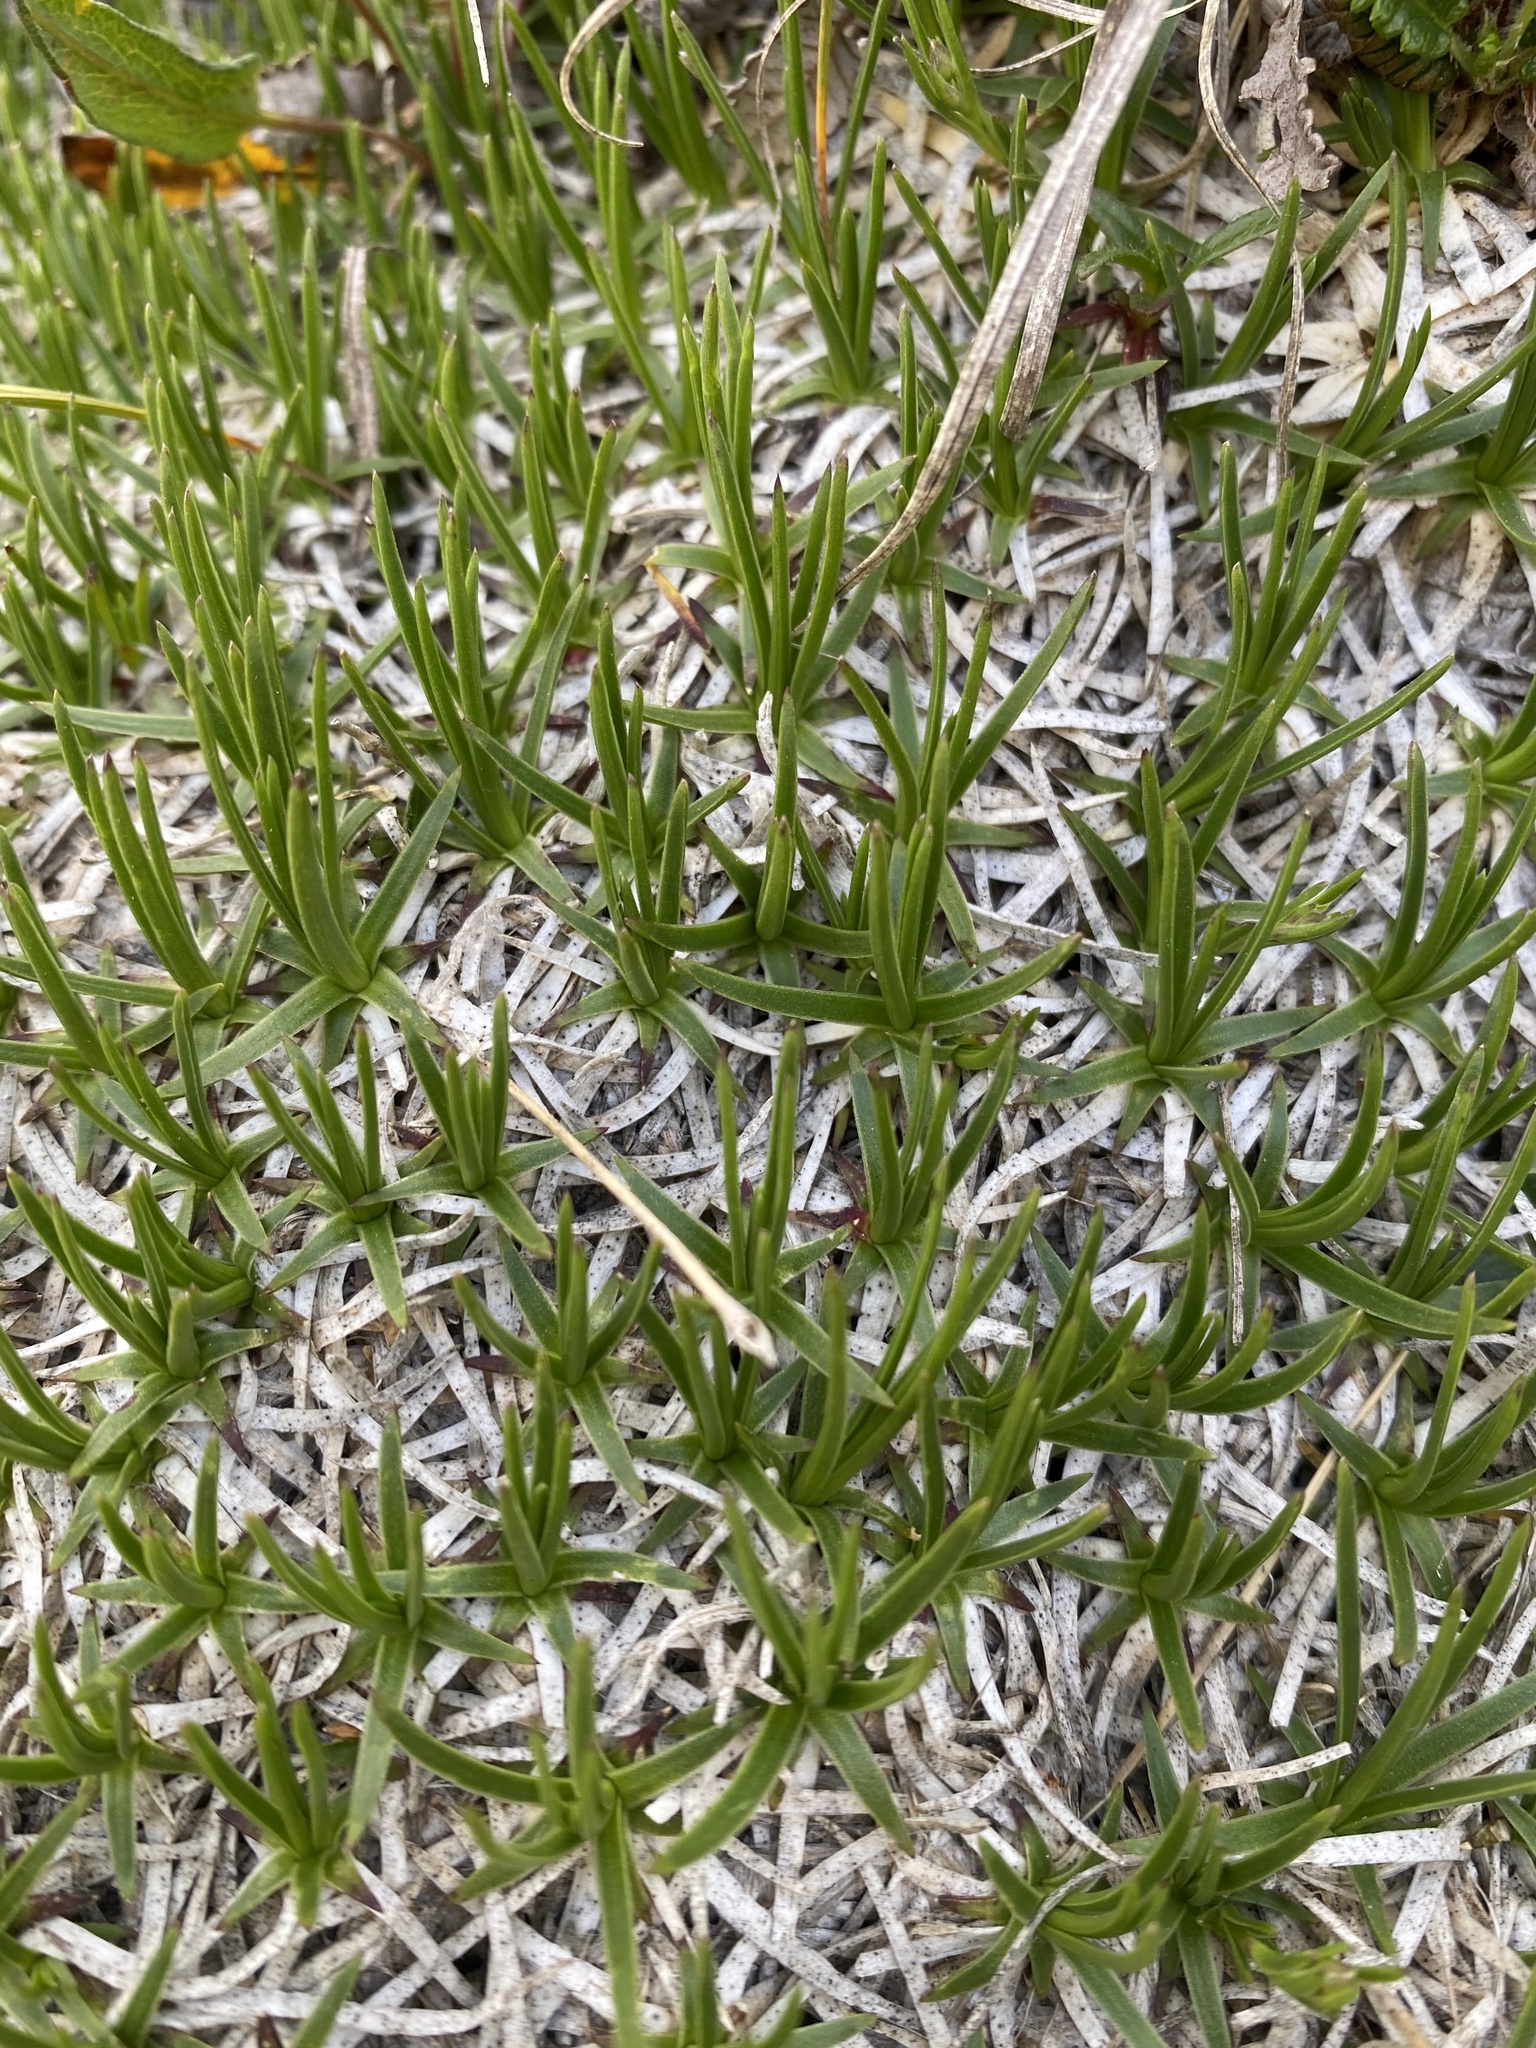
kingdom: Plantae
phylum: Tracheophyta
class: Magnoliopsida
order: Caryophyllales
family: Caryophyllaceae
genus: Gypsophila
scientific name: Gypsophila tenuifolia
